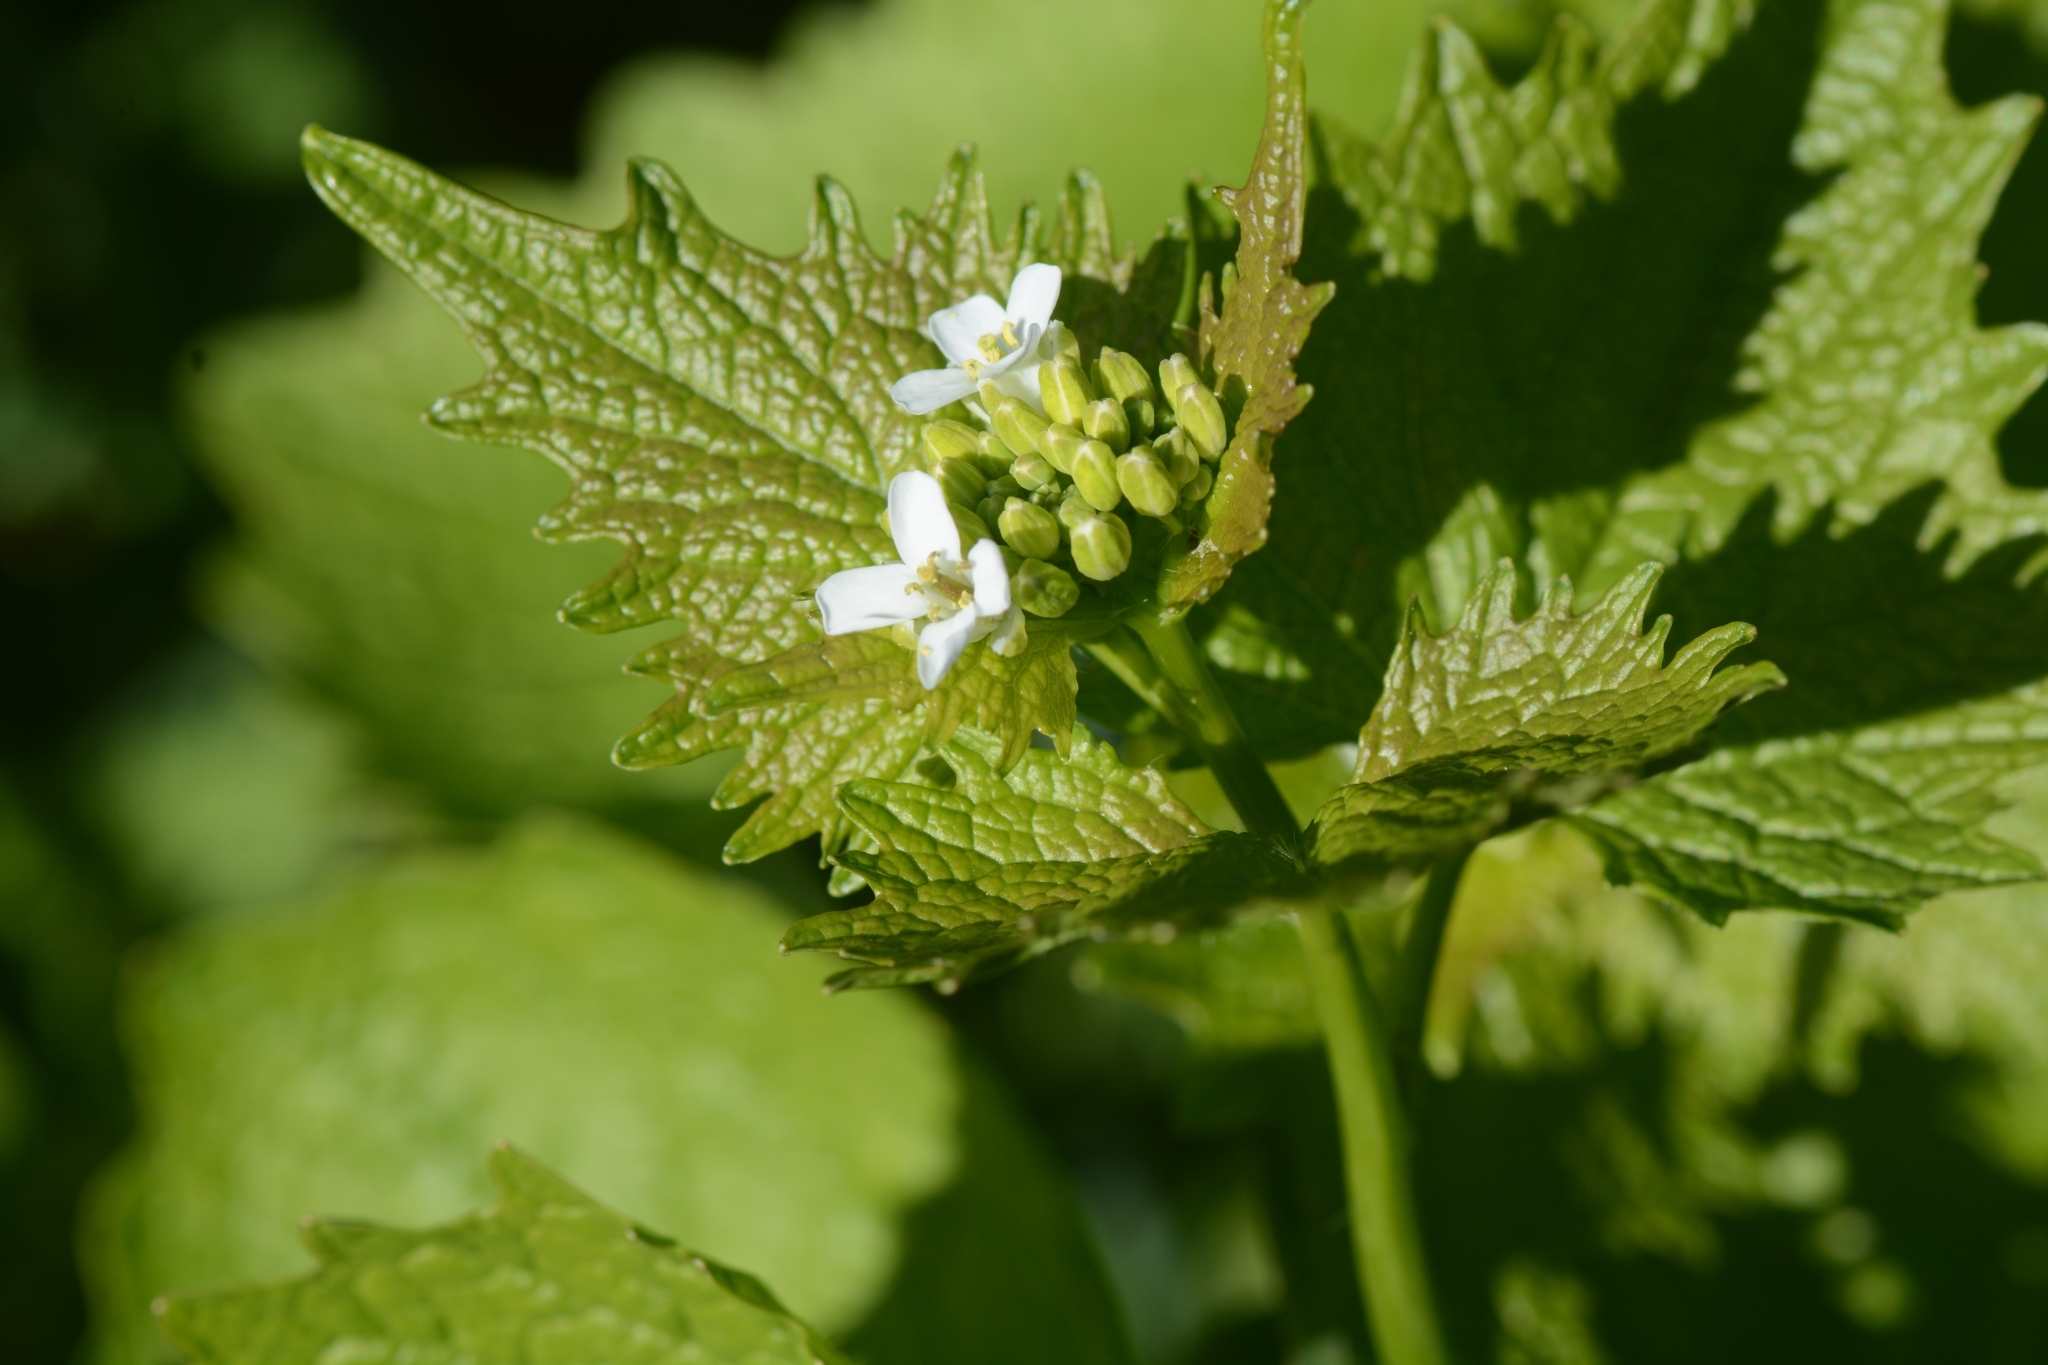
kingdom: Plantae
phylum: Tracheophyta
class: Magnoliopsida
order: Brassicales
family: Brassicaceae
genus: Alliaria
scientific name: Alliaria petiolata
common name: Garlic mustard
